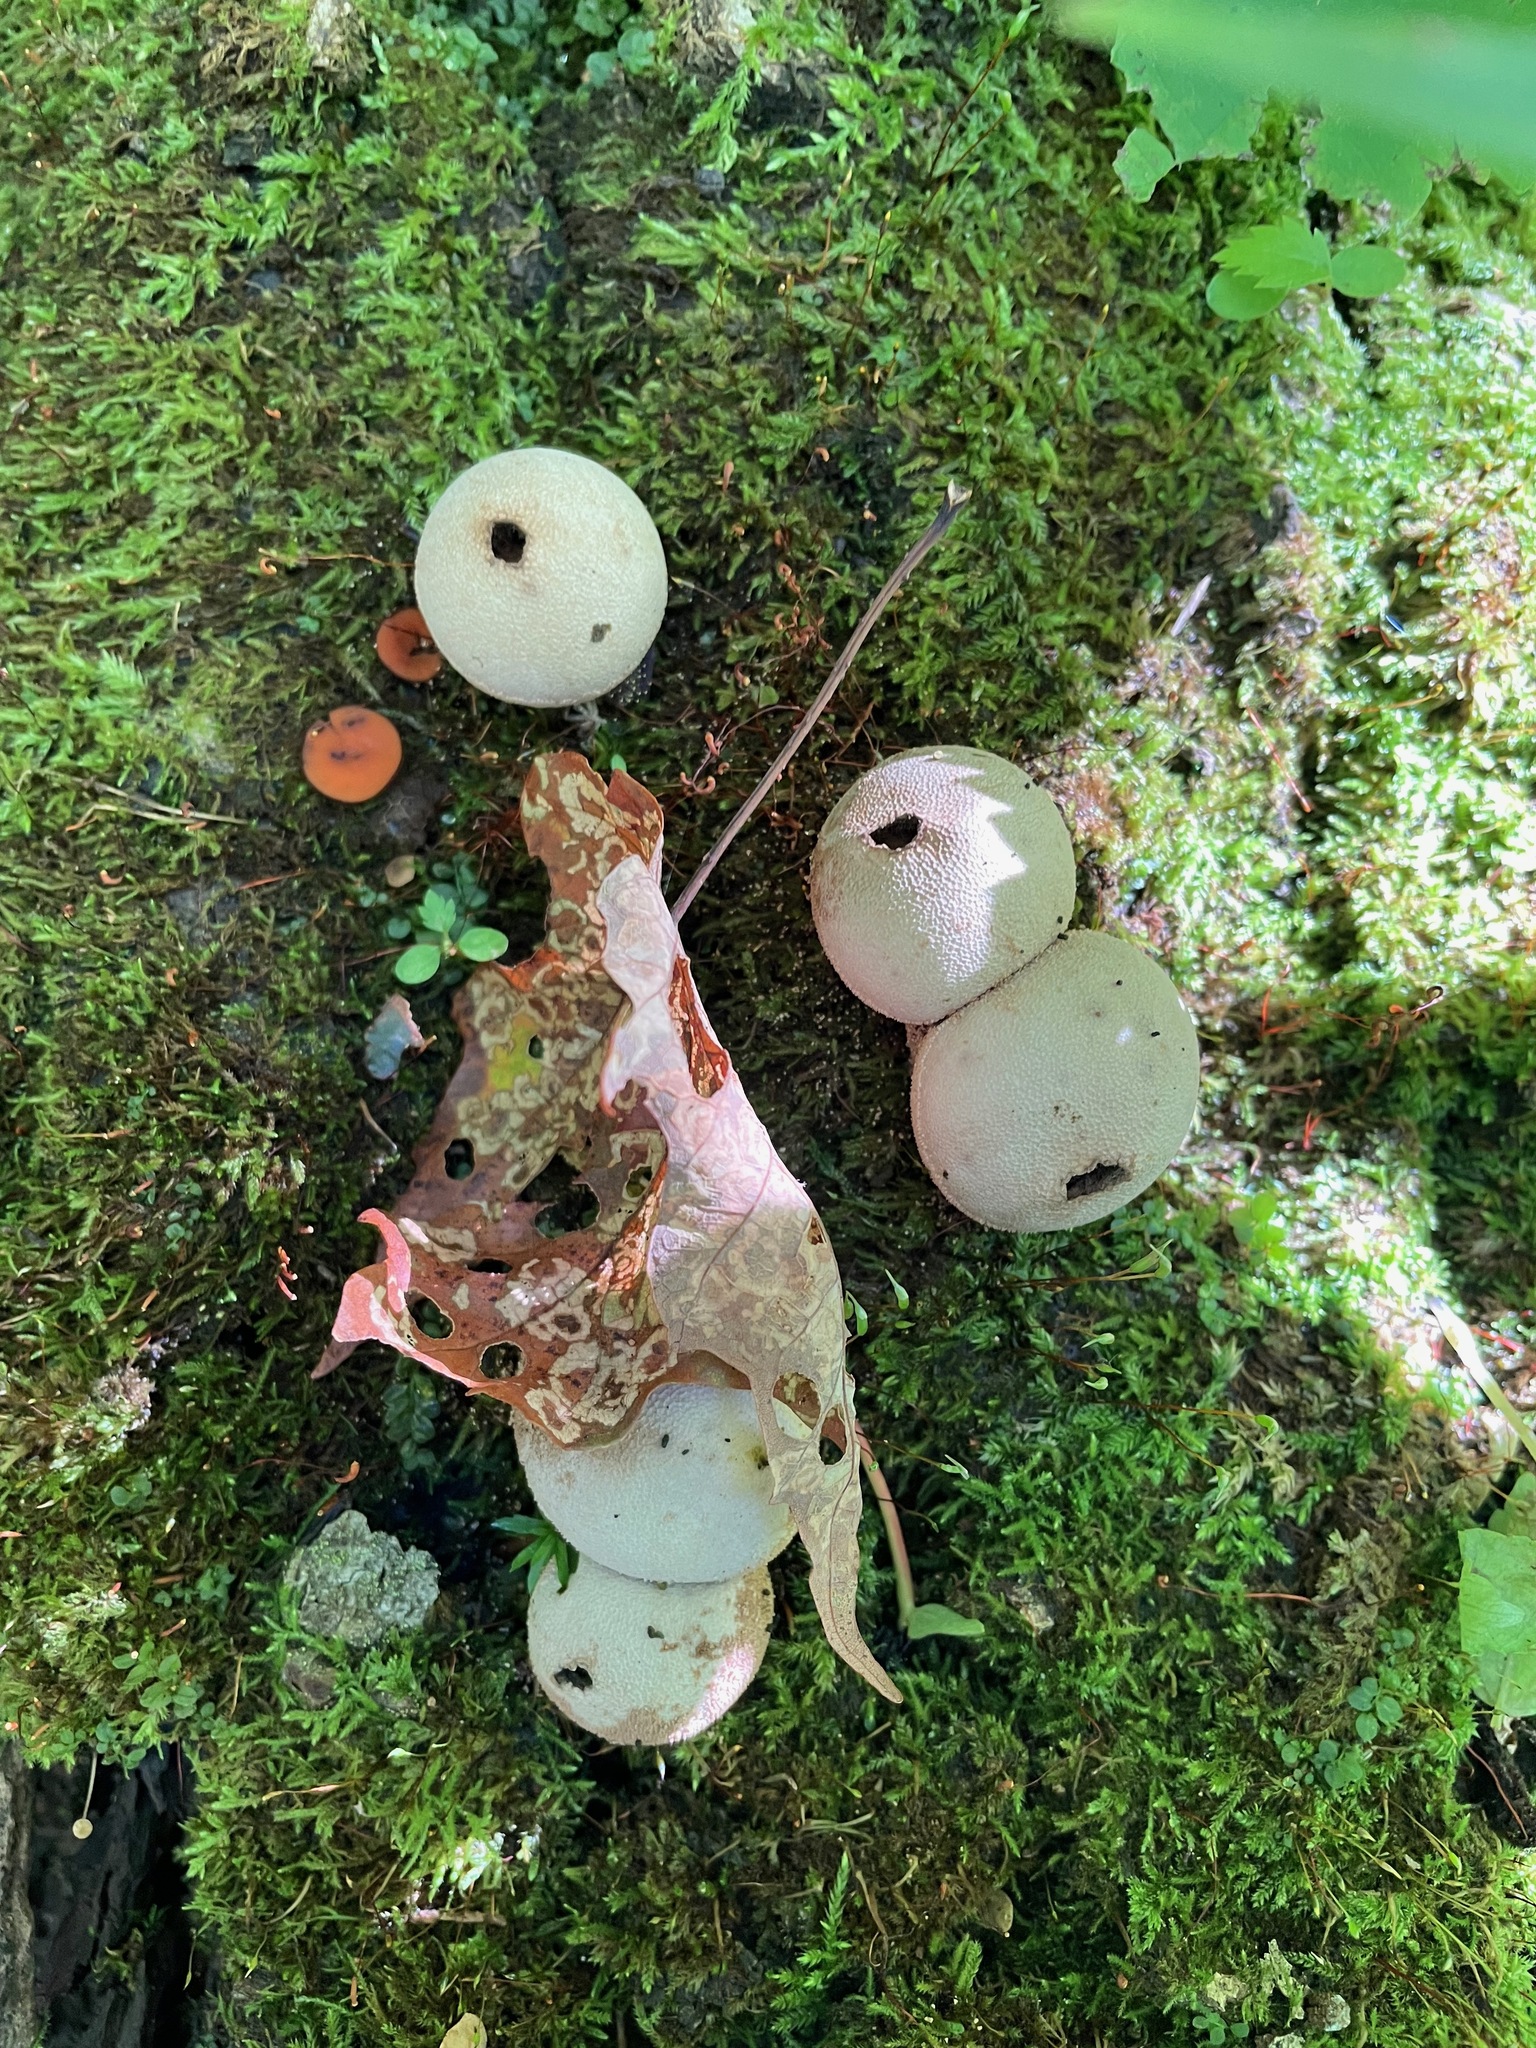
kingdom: Fungi
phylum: Basidiomycota
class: Agaricomycetes
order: Agaricales
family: Lycoperdaceae
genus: Apioperdon
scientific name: Apioperdon pyriforme
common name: Pear-shaped puffball
